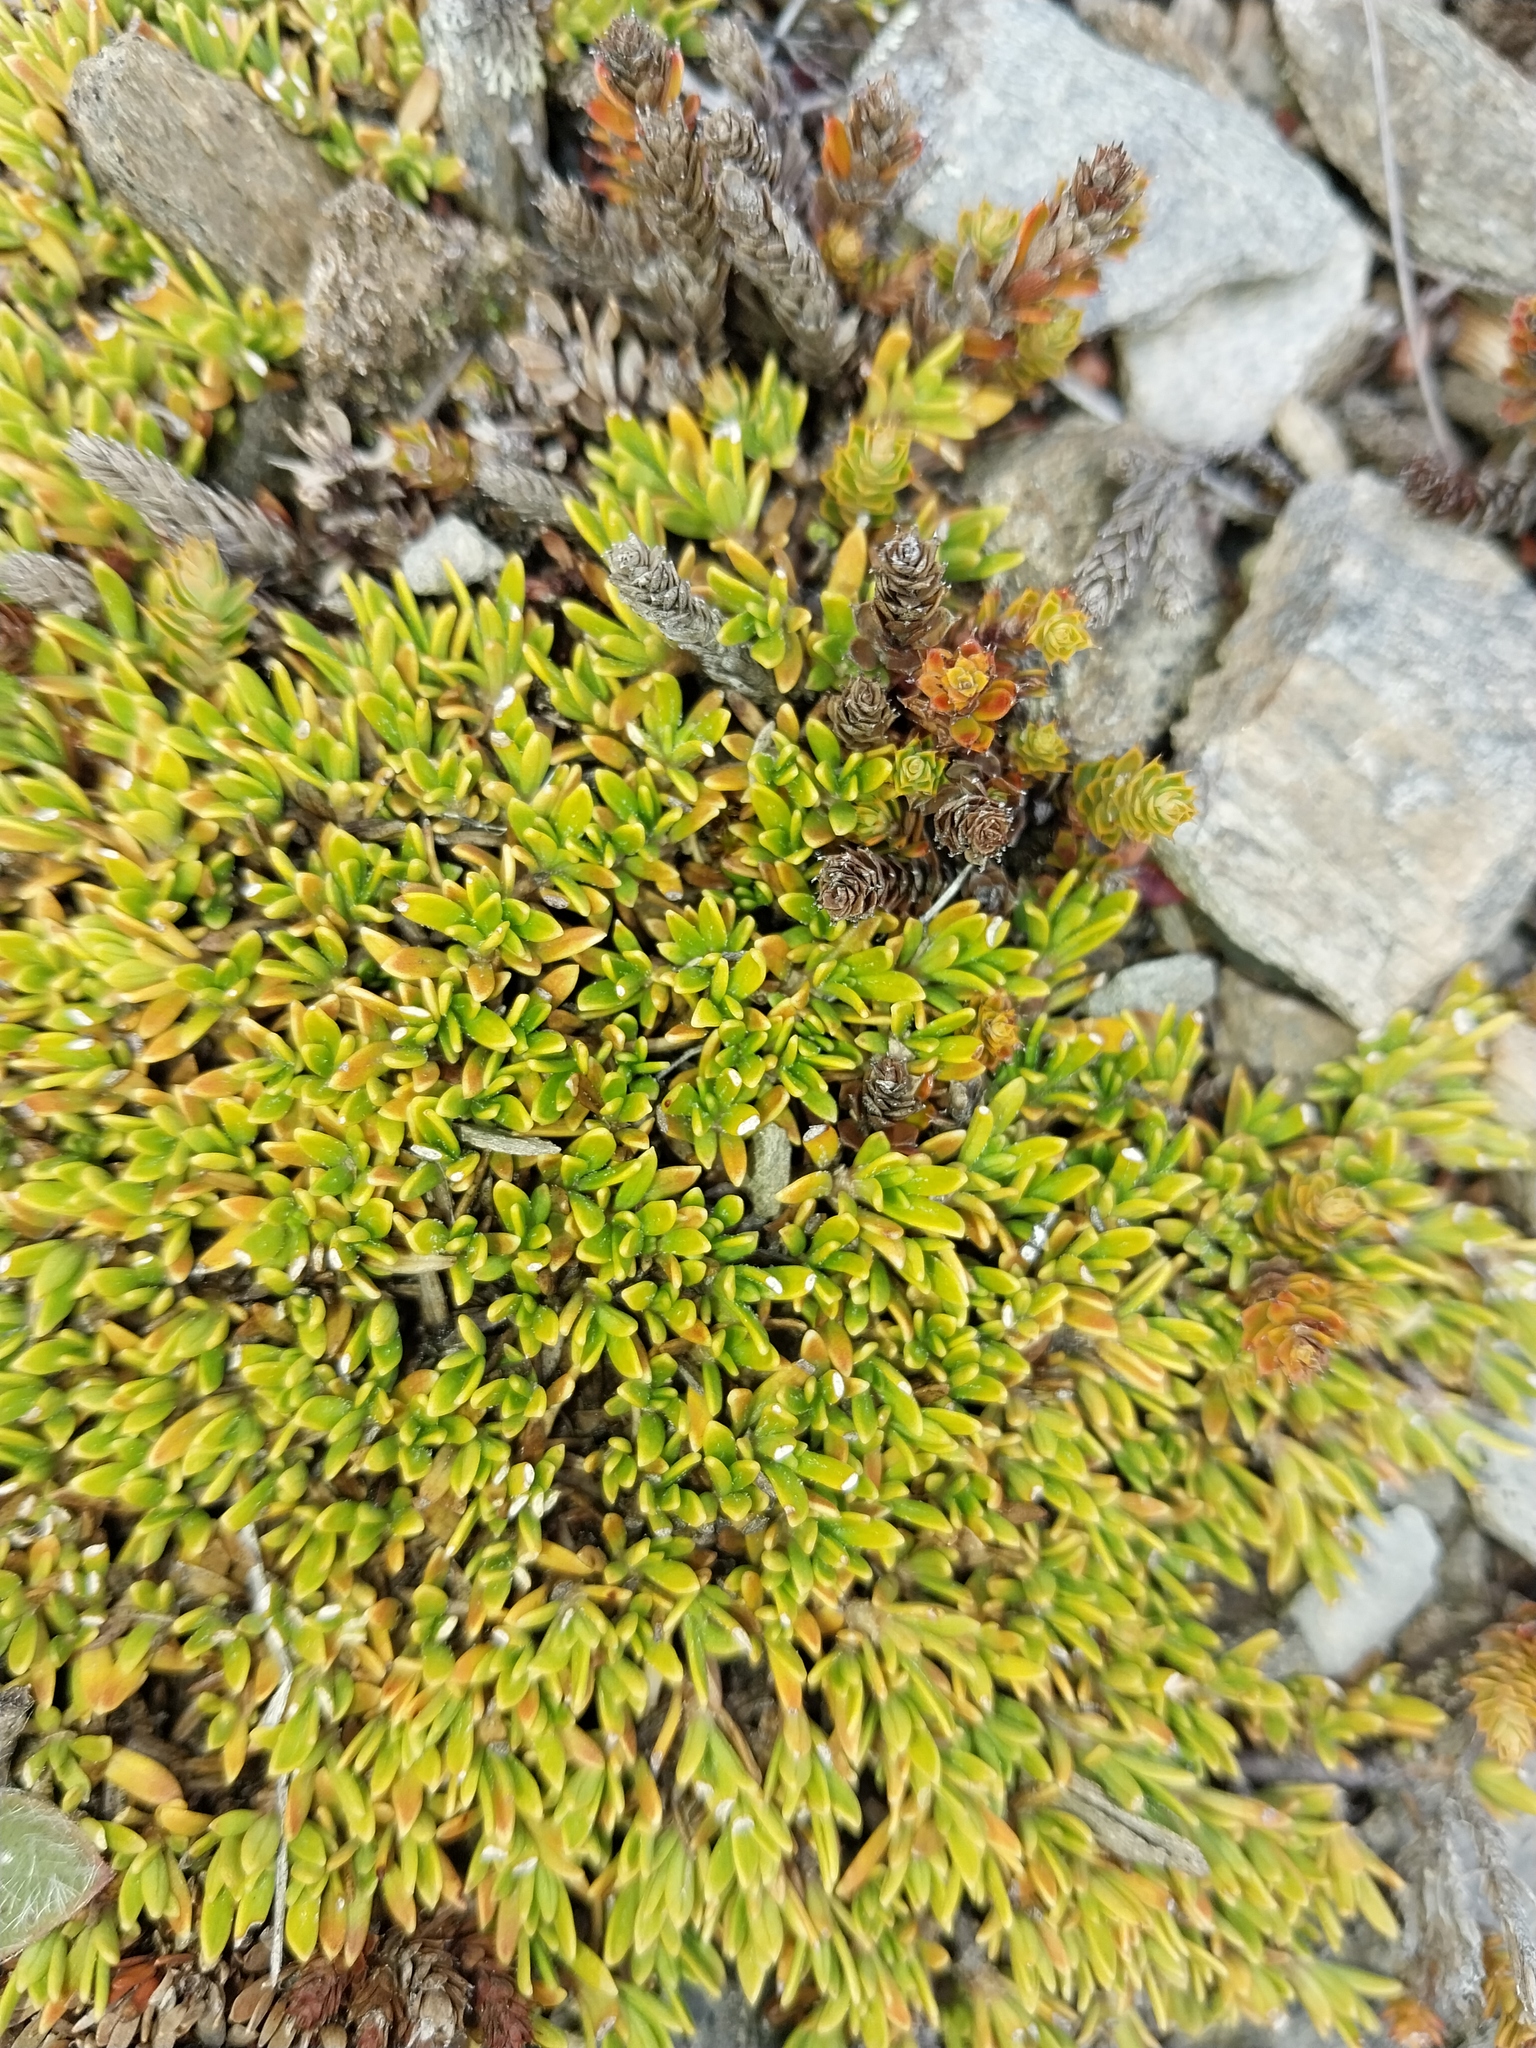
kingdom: Plantae
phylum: Tracheophyta
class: Magnoliopsida
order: Gentianales
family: Rubiaceae
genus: Coprosma
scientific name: Coprosma petriei
